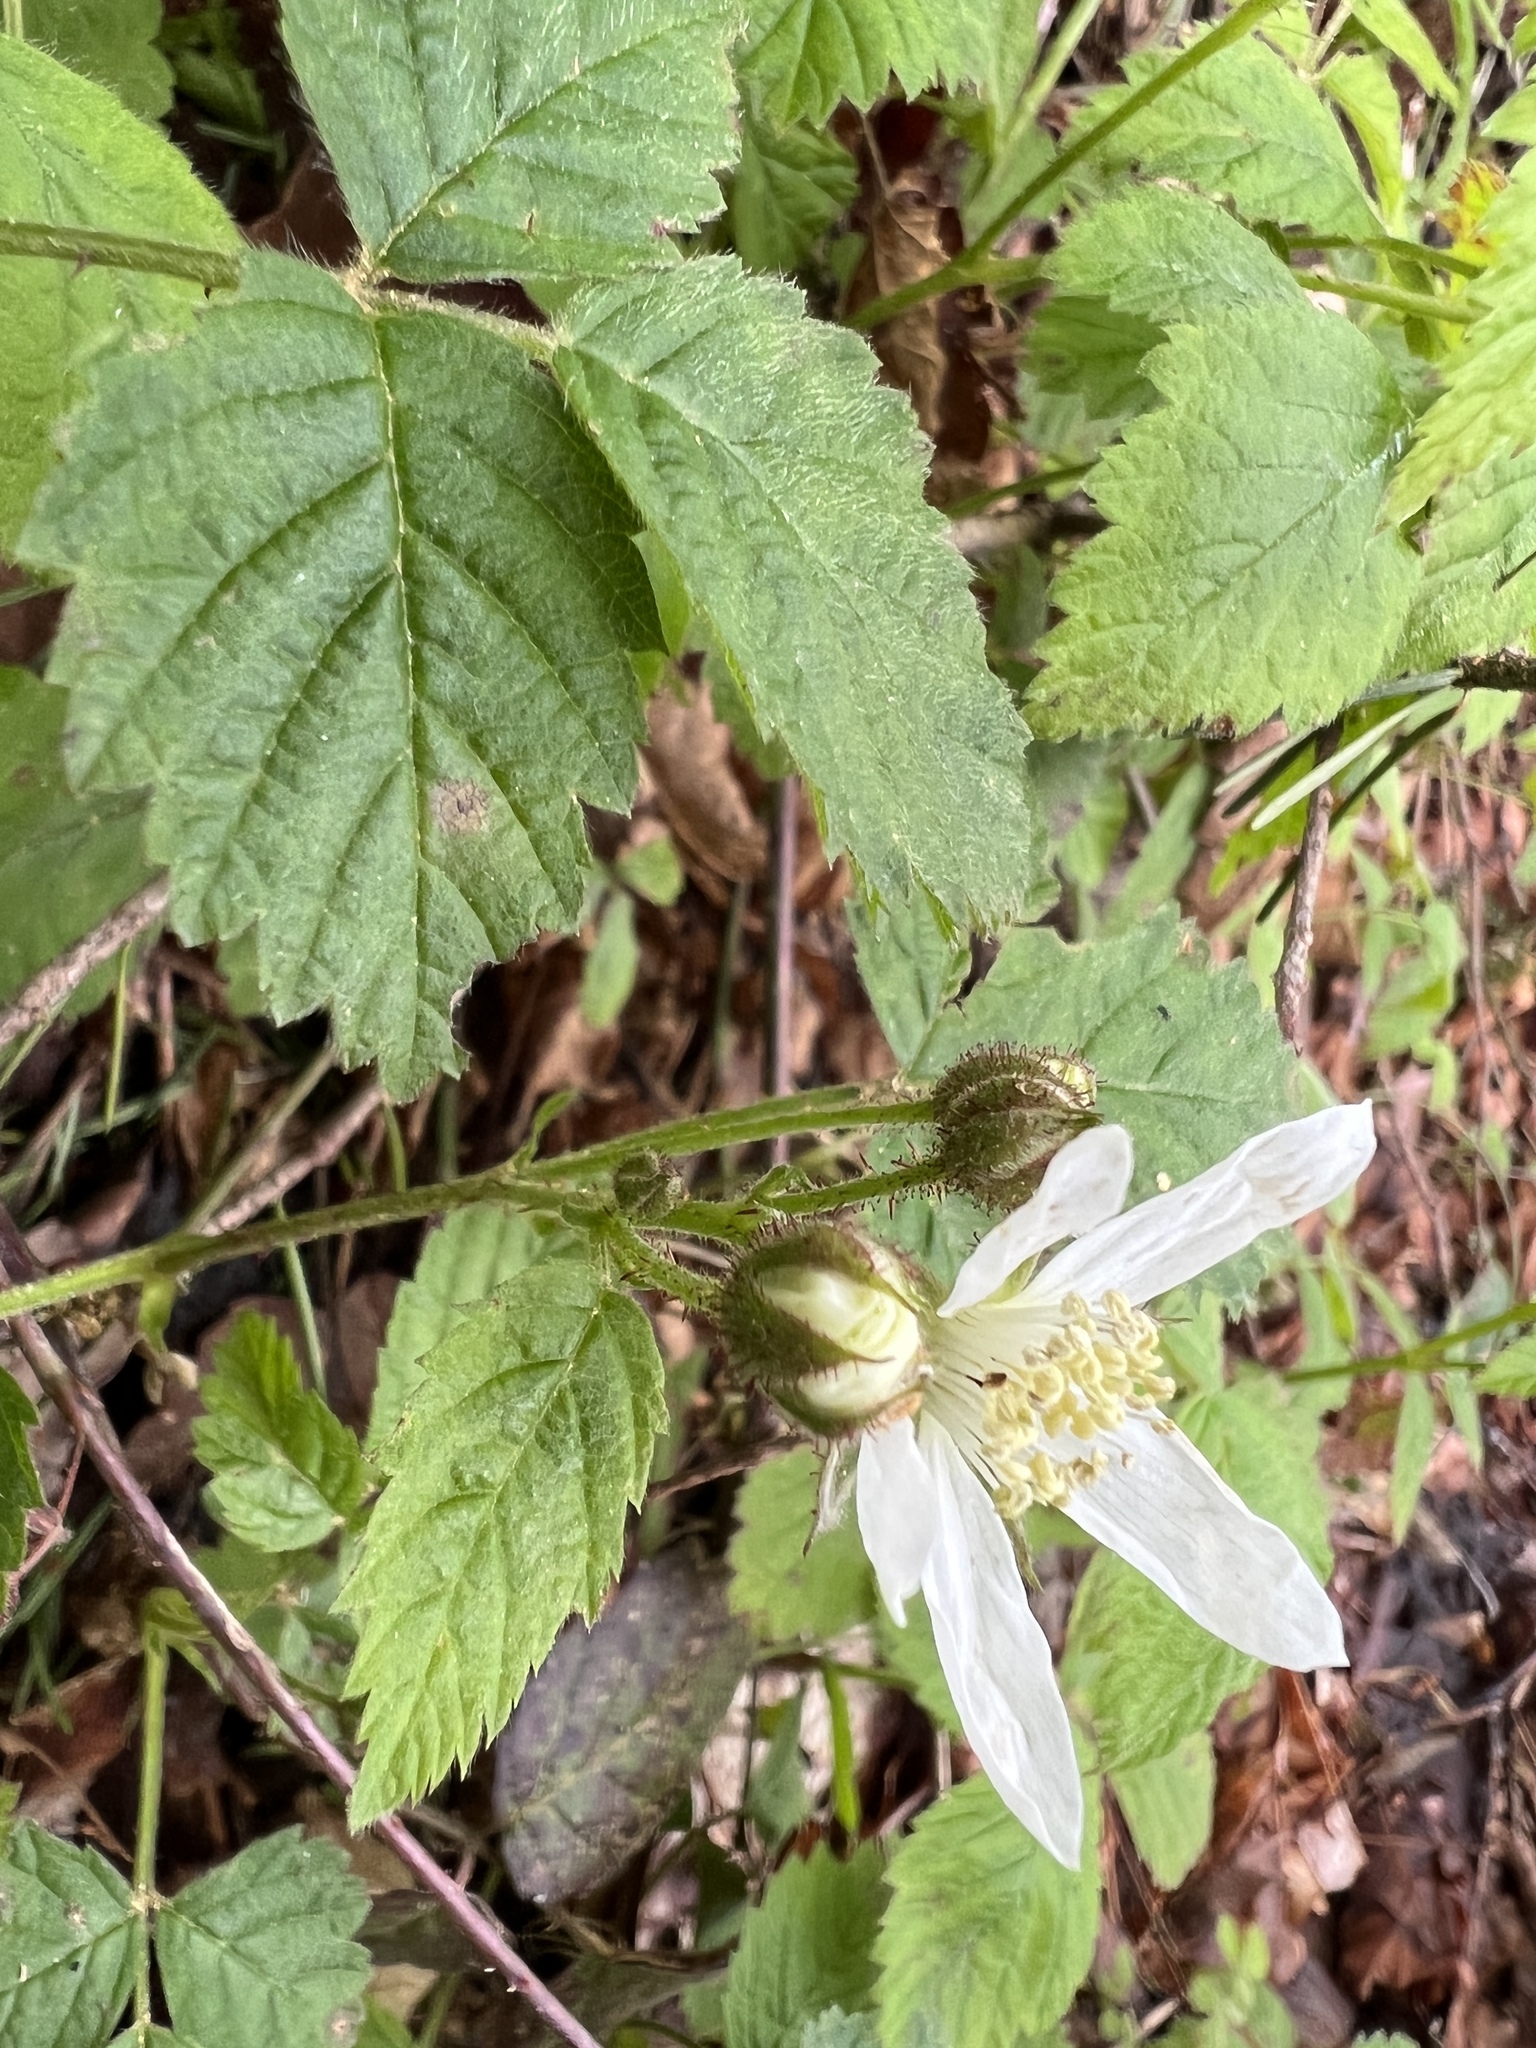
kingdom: Plantae
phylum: Tracheophyta
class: Magnoliopsida
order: Rosales
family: Rosaceae
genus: Rubus
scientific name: Rubus ursinus
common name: Pacific blackberry
